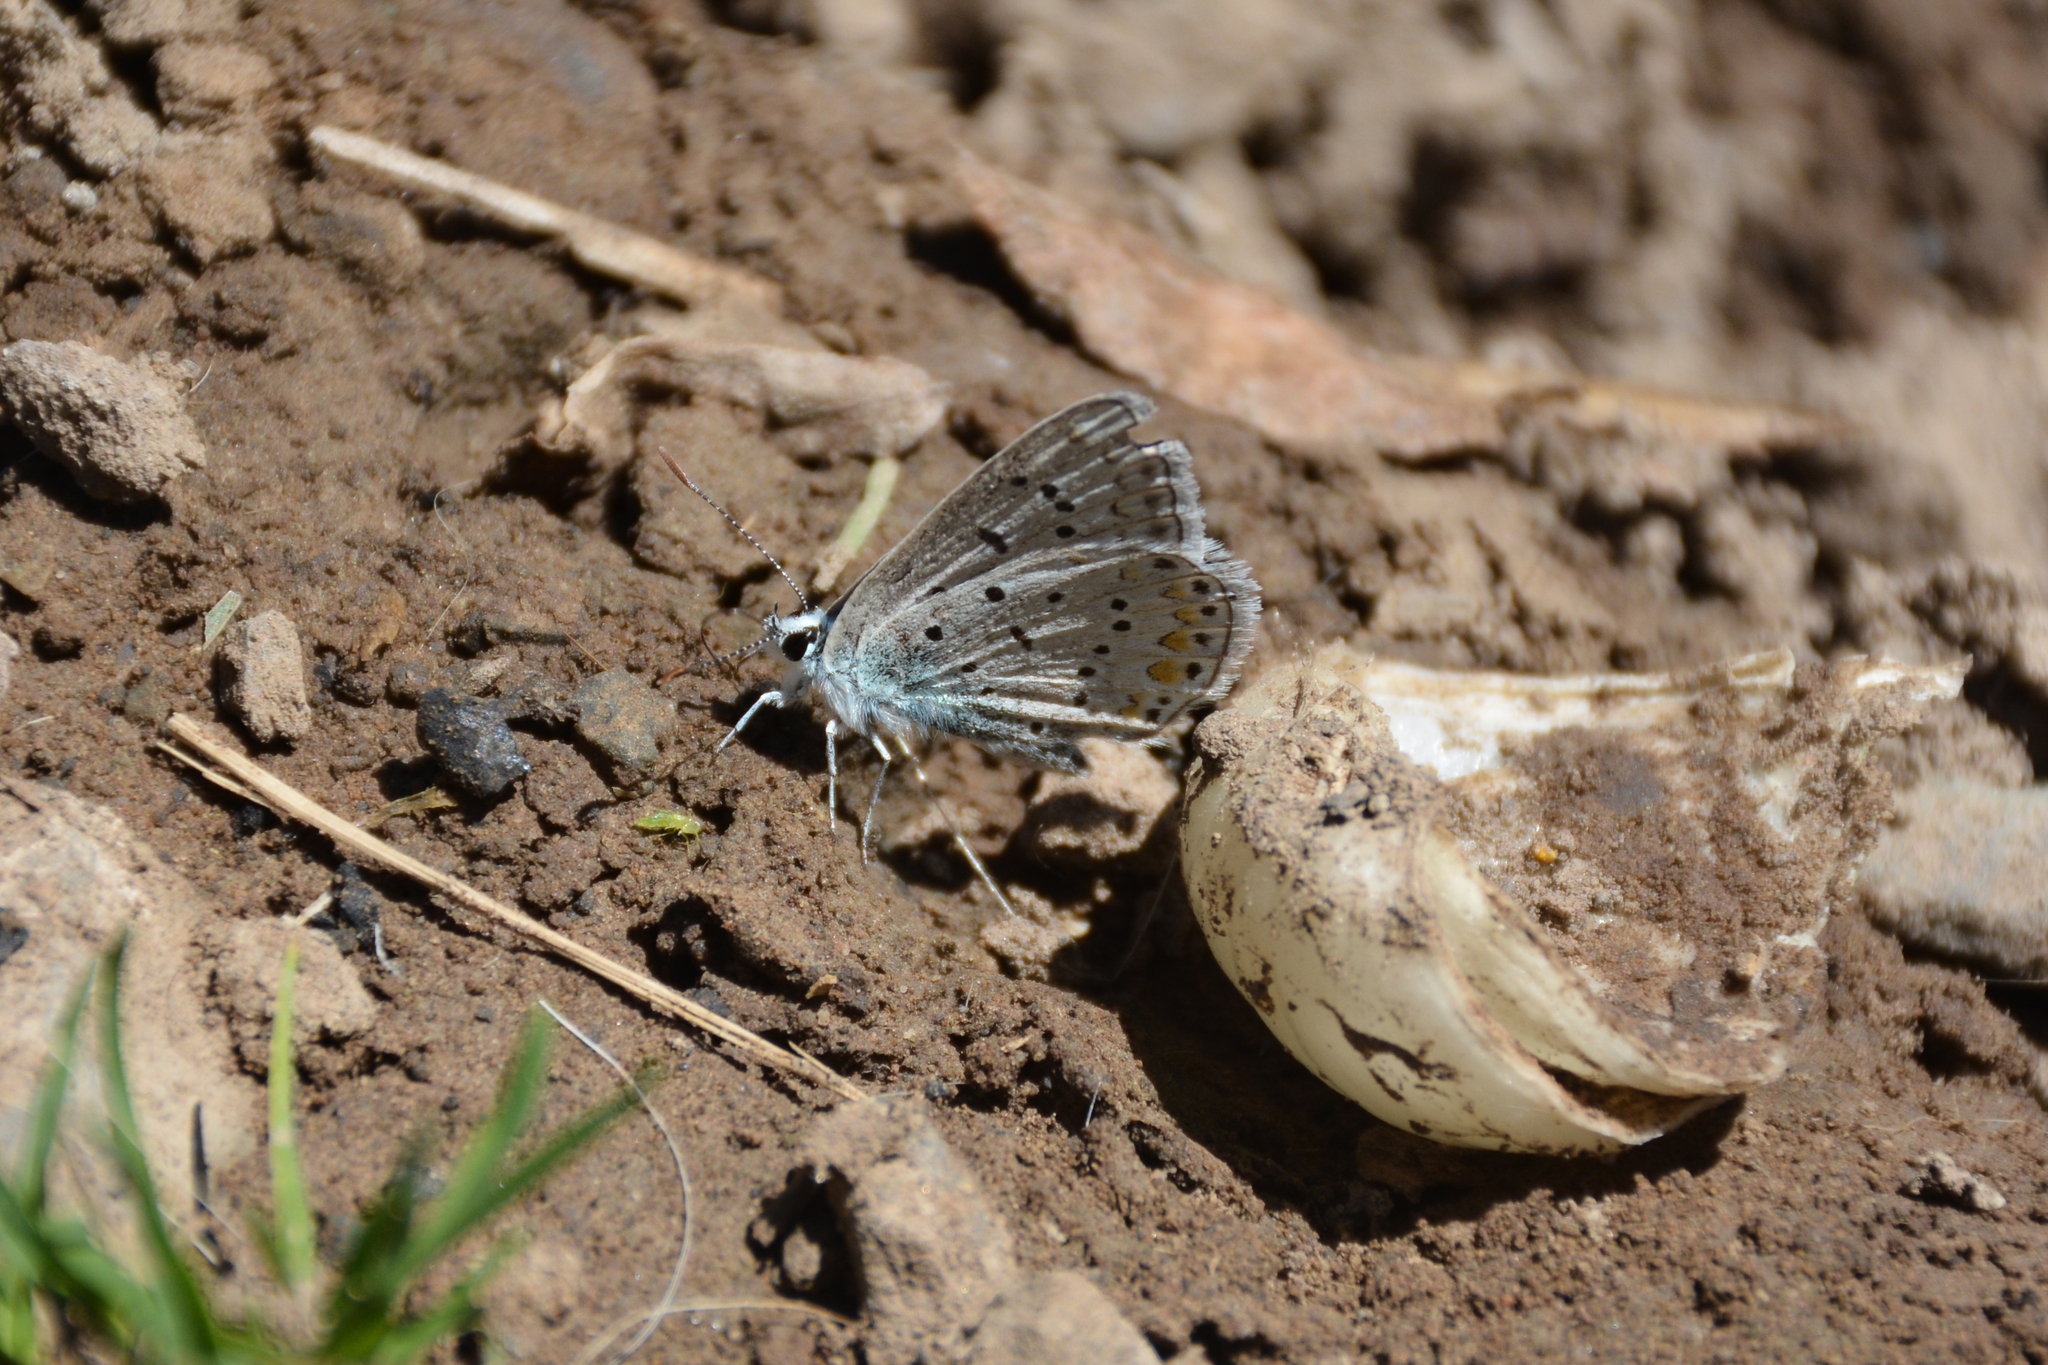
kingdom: Animalia
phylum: Arthropoda
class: Insecta
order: Lepidoptera
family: Lycaenidae
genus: Polyommatus
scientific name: Polyommatus icarus
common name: Common blue
